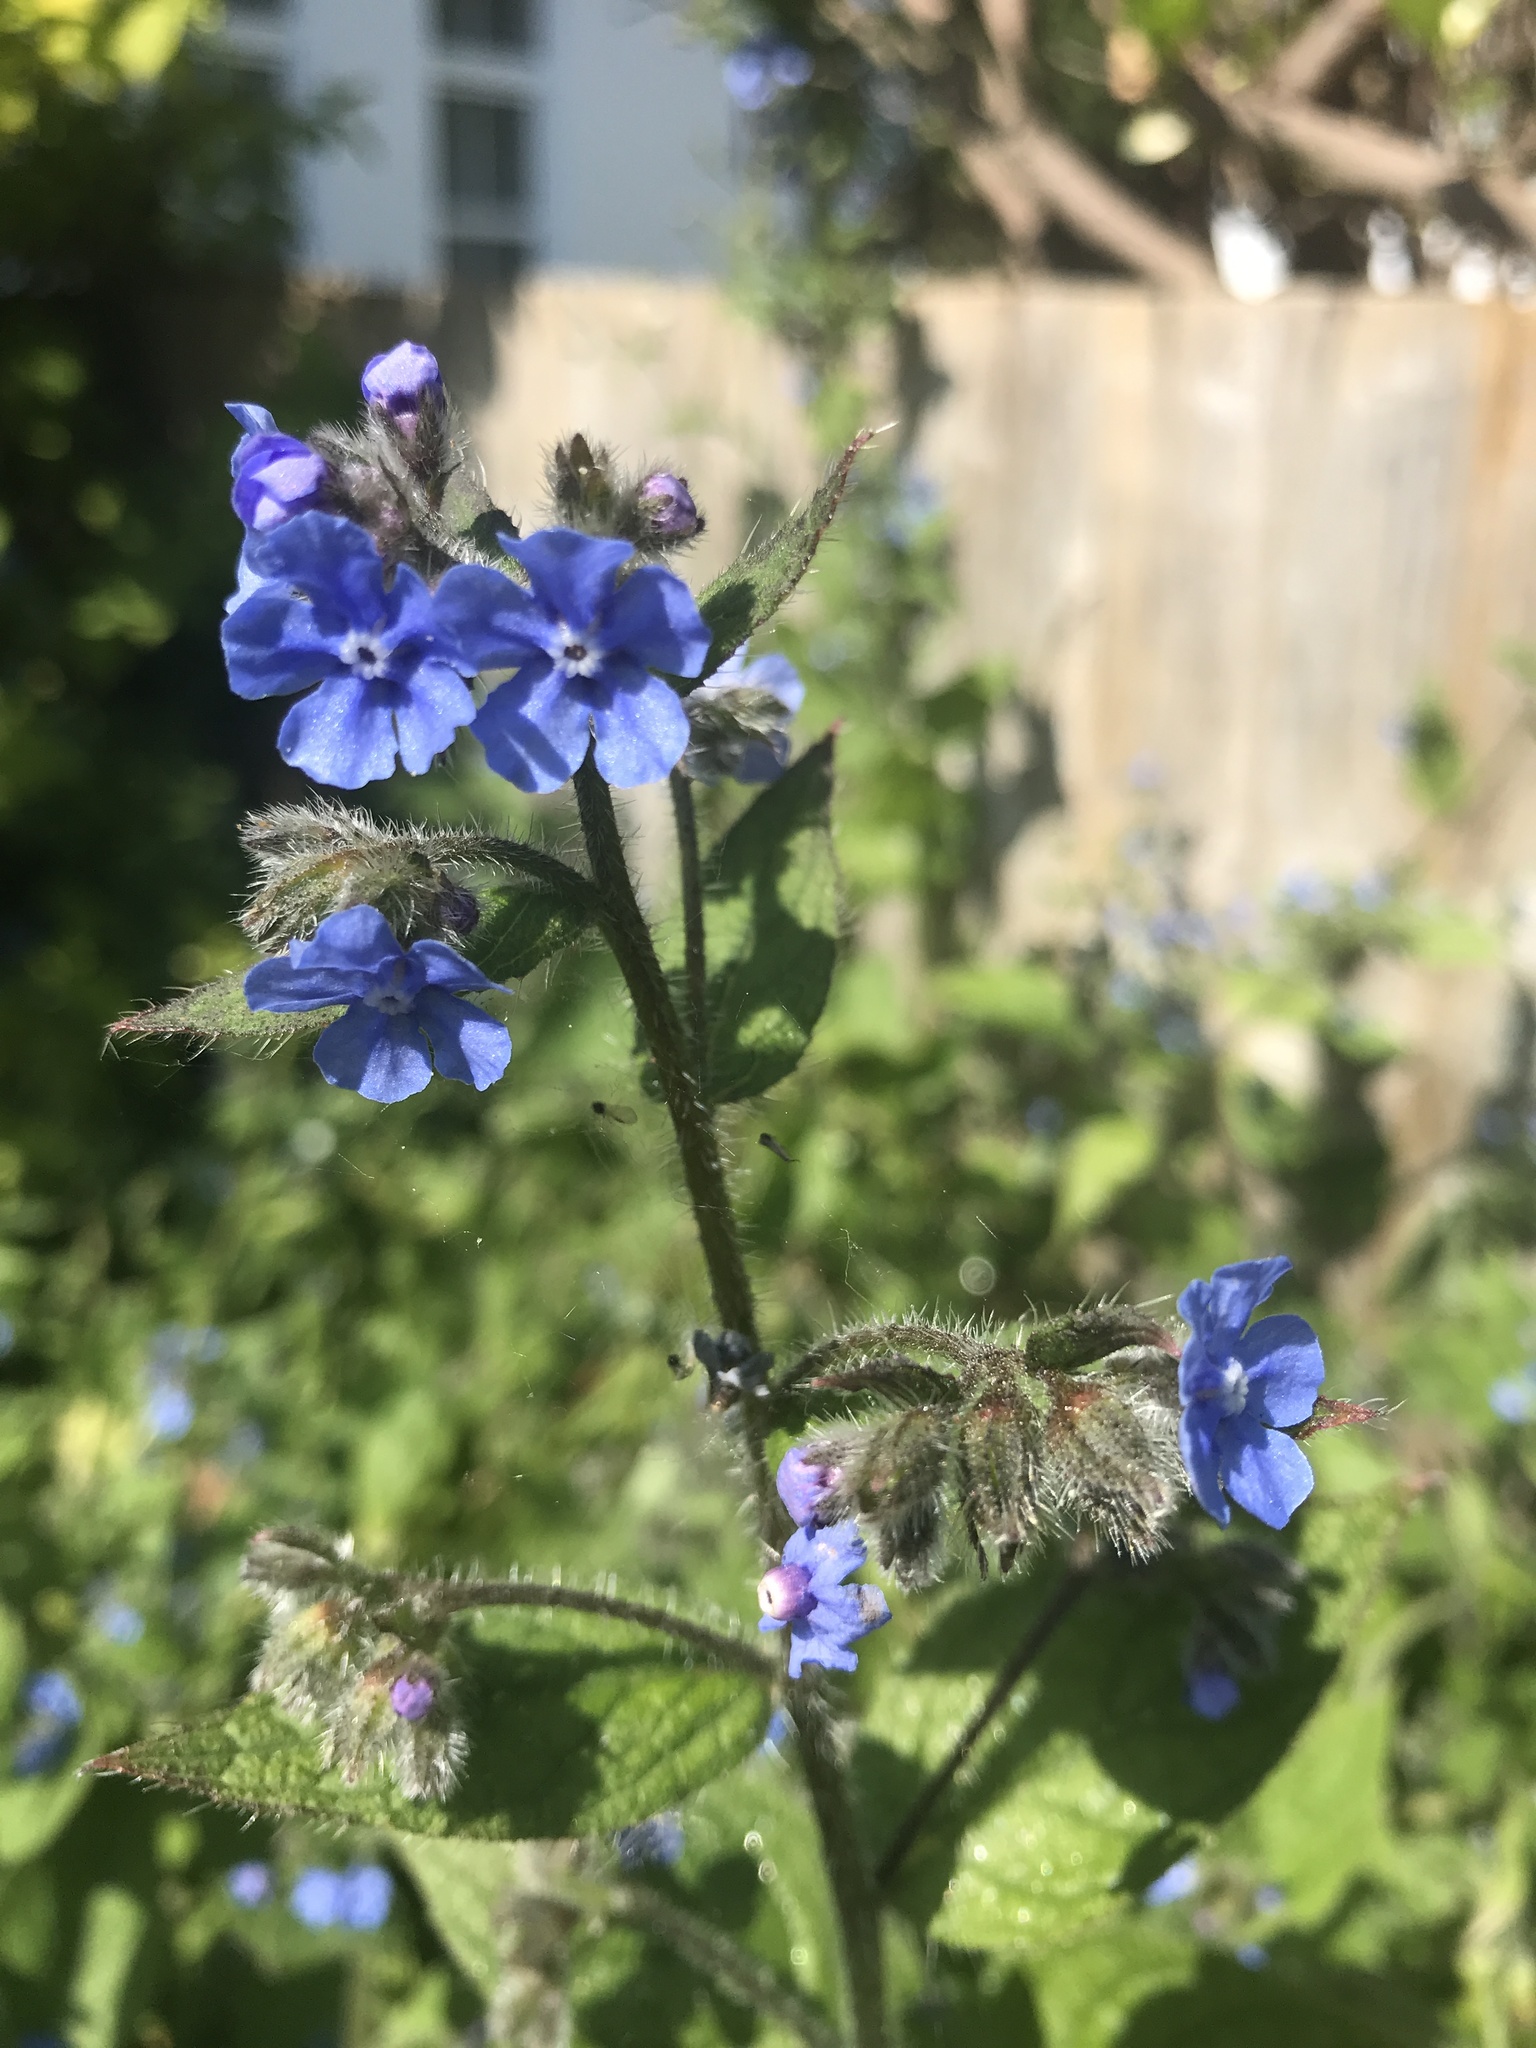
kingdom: Plantae
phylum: Tracheophyta
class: Magnoliopsida
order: Boraginales
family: Boraginaceae
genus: Pentaglottis
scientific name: Pentaglottis sempervirens
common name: Green alkanet
